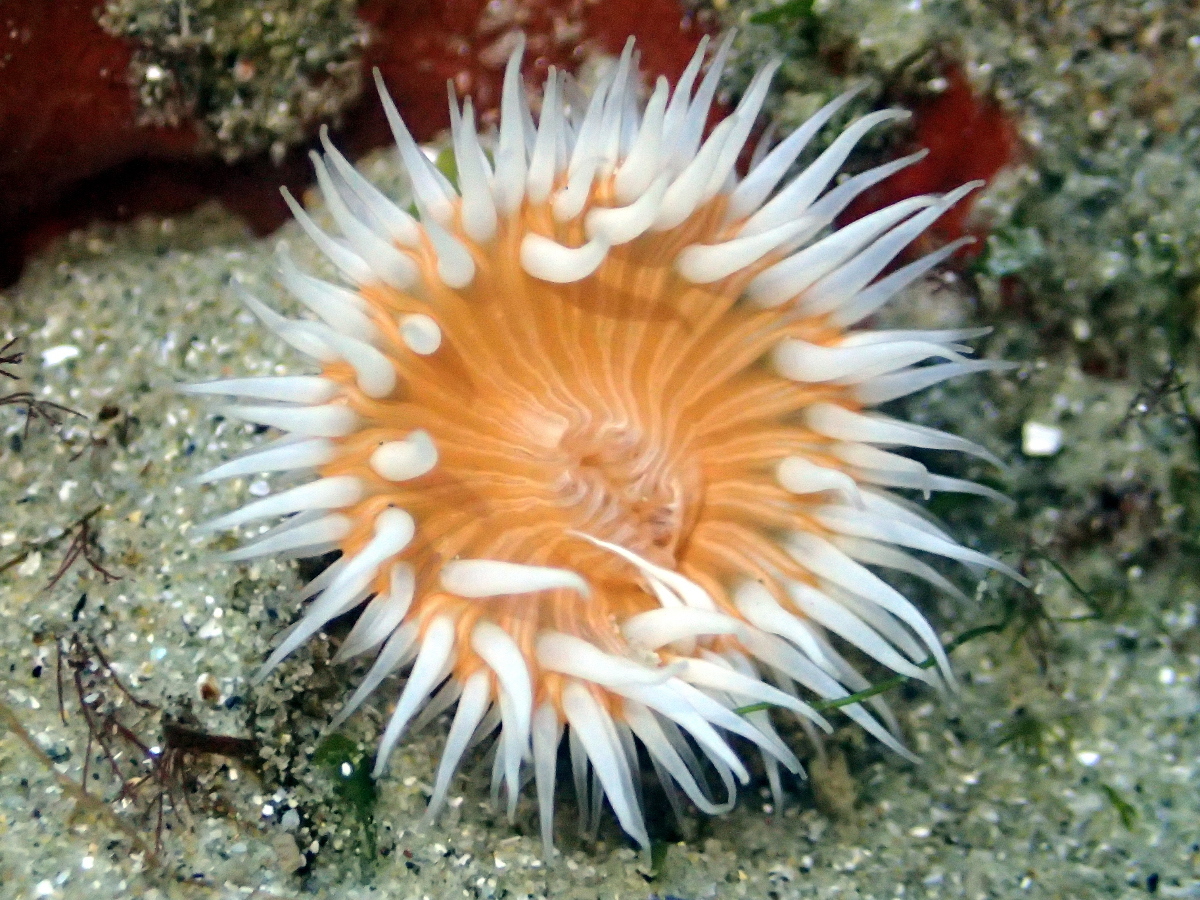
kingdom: Animalia
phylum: Cnidaria
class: Anthozoa
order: Actiniaria
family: Sagartiidae
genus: Anthothoe
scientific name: Anthothoe albocincta
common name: Orange striped anemone
